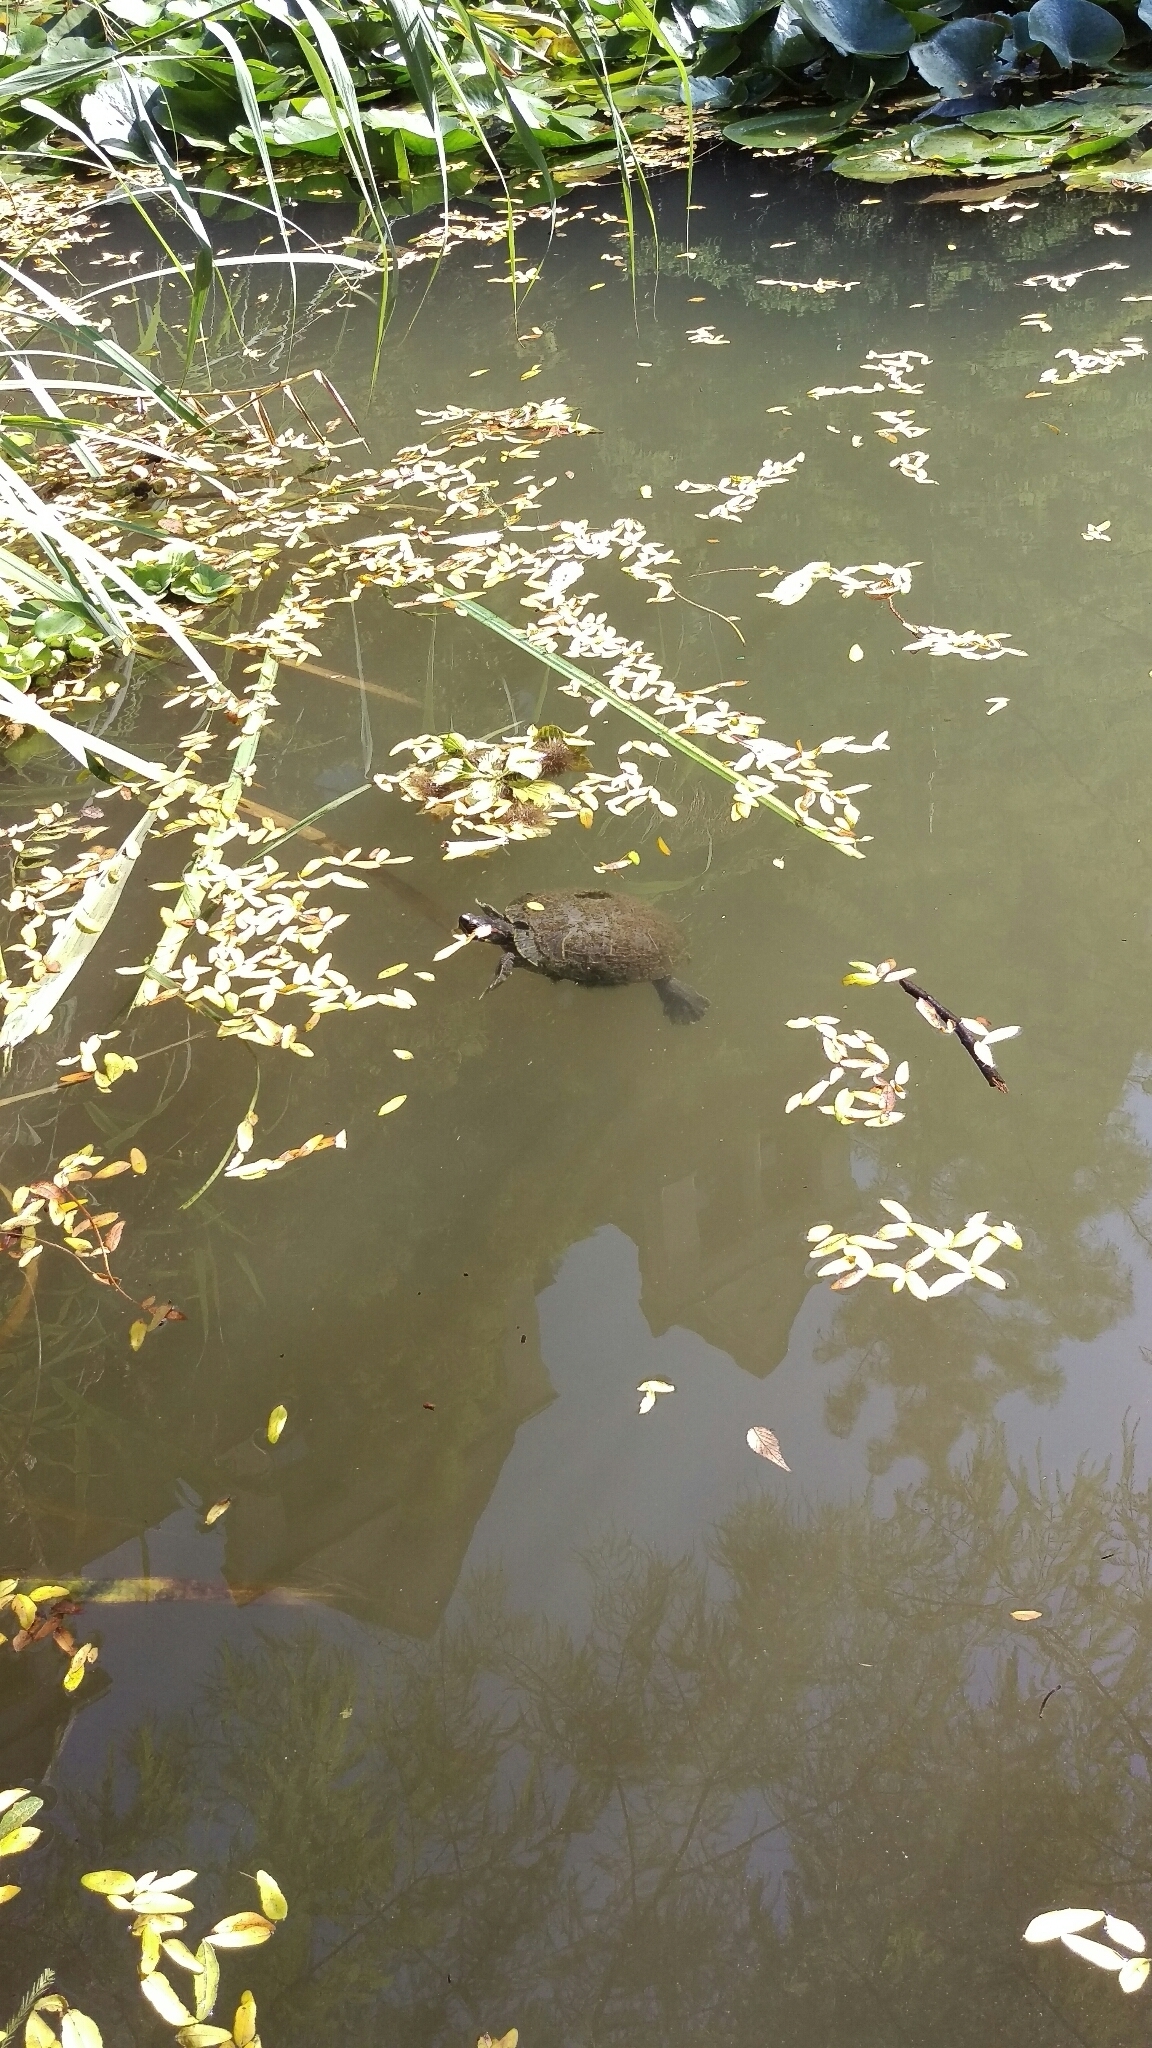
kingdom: Animalia
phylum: Chordata
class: Testudines
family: Emydidae
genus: Trachemys
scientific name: Trachemys scripta
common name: Slider
